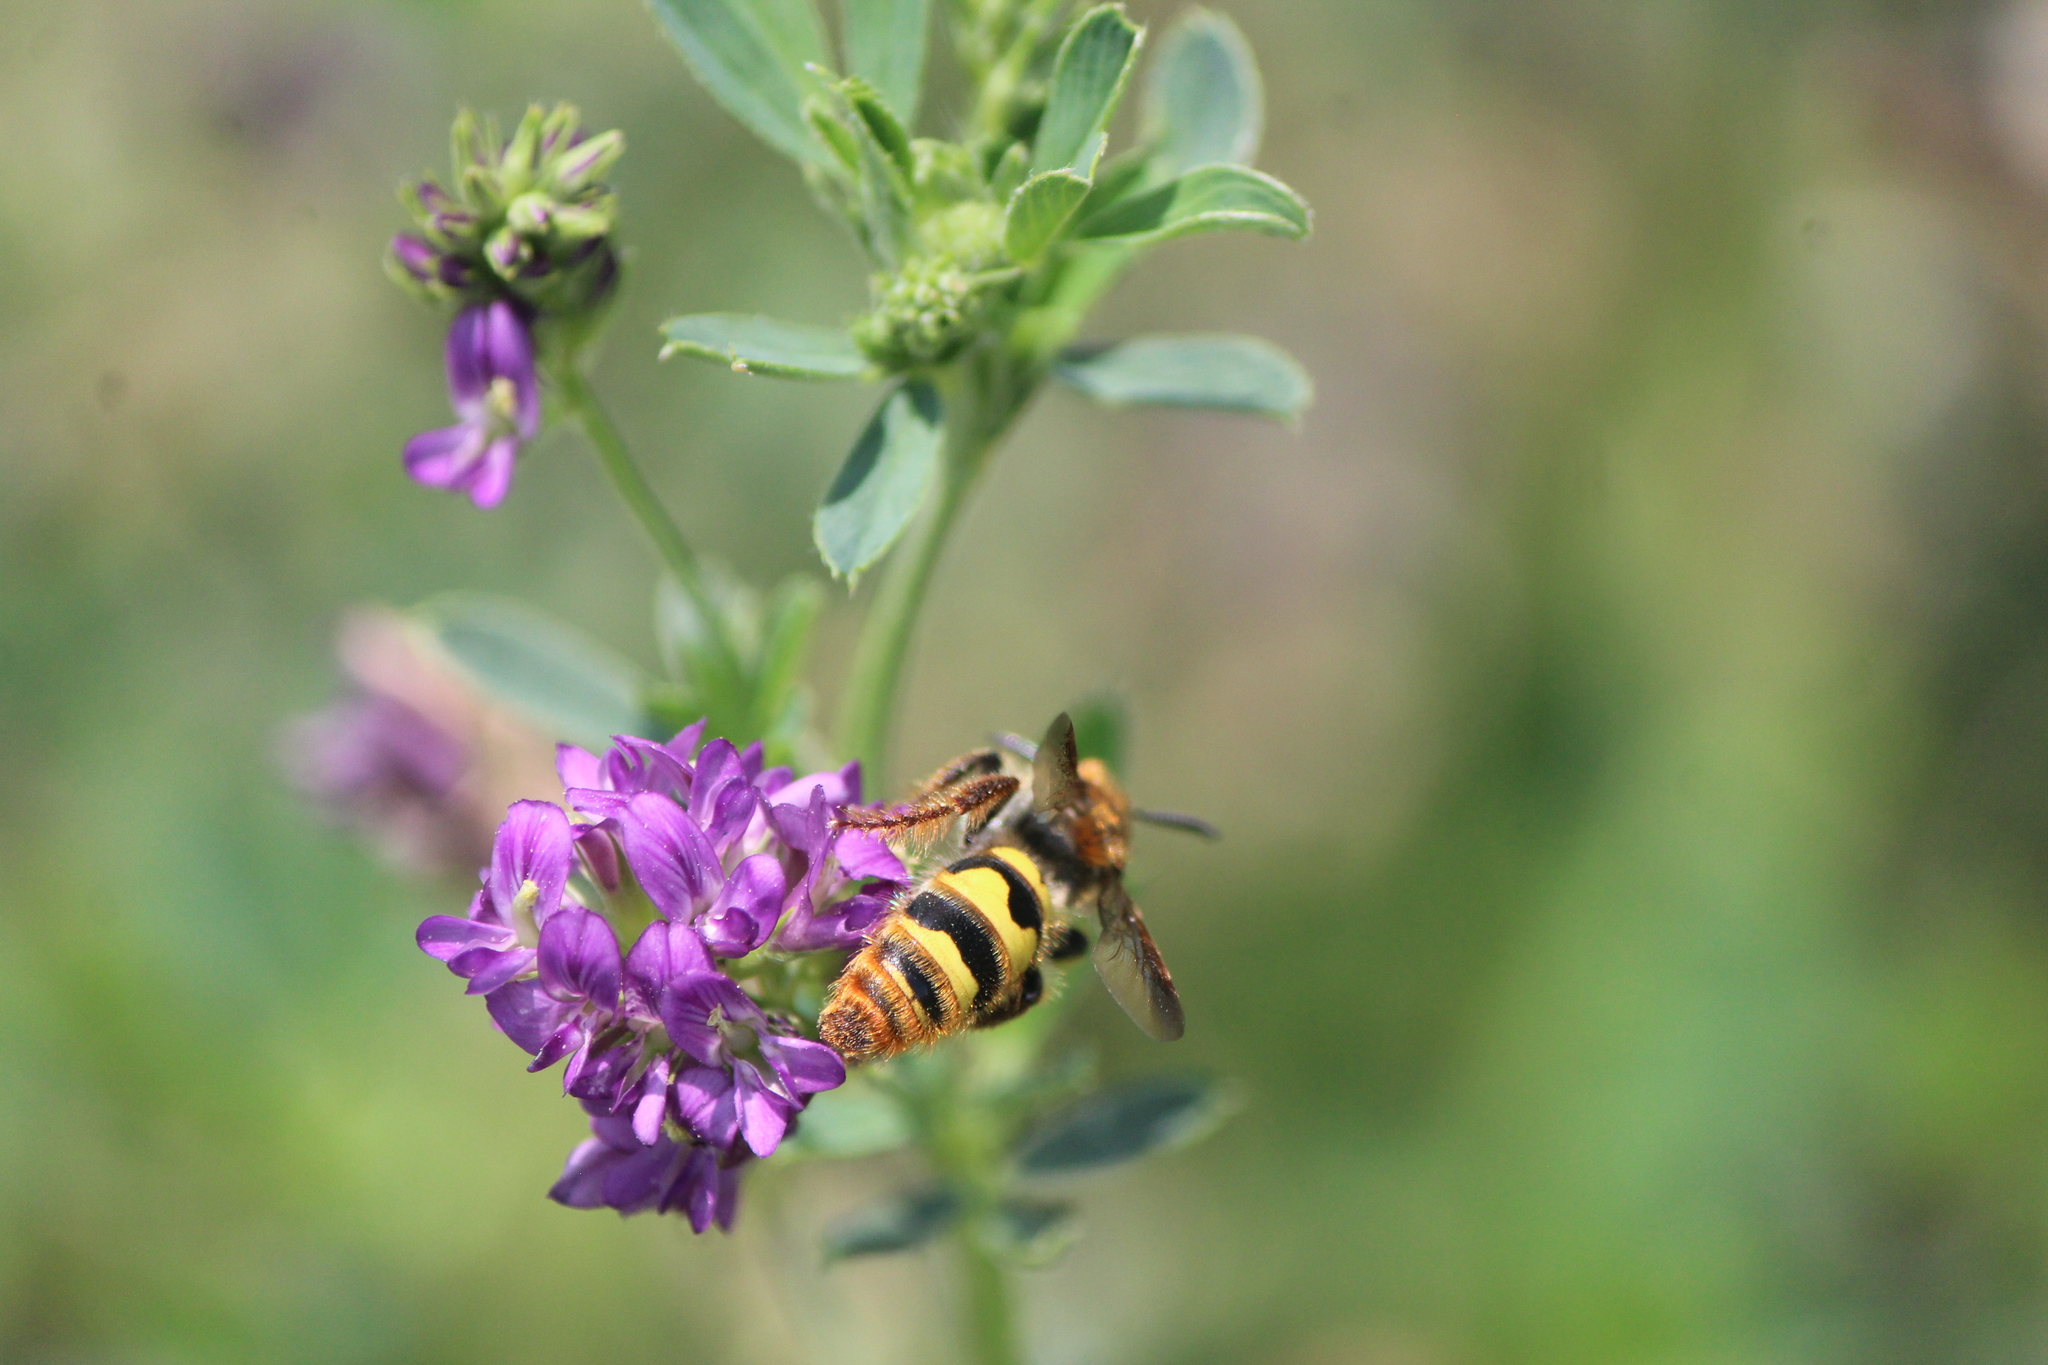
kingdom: Animalia
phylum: Arthropoda
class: Insecta
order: Hymenoptera
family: Scoliidae
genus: Xanthocampsomeris
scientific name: Xanthocampsomeris completa
